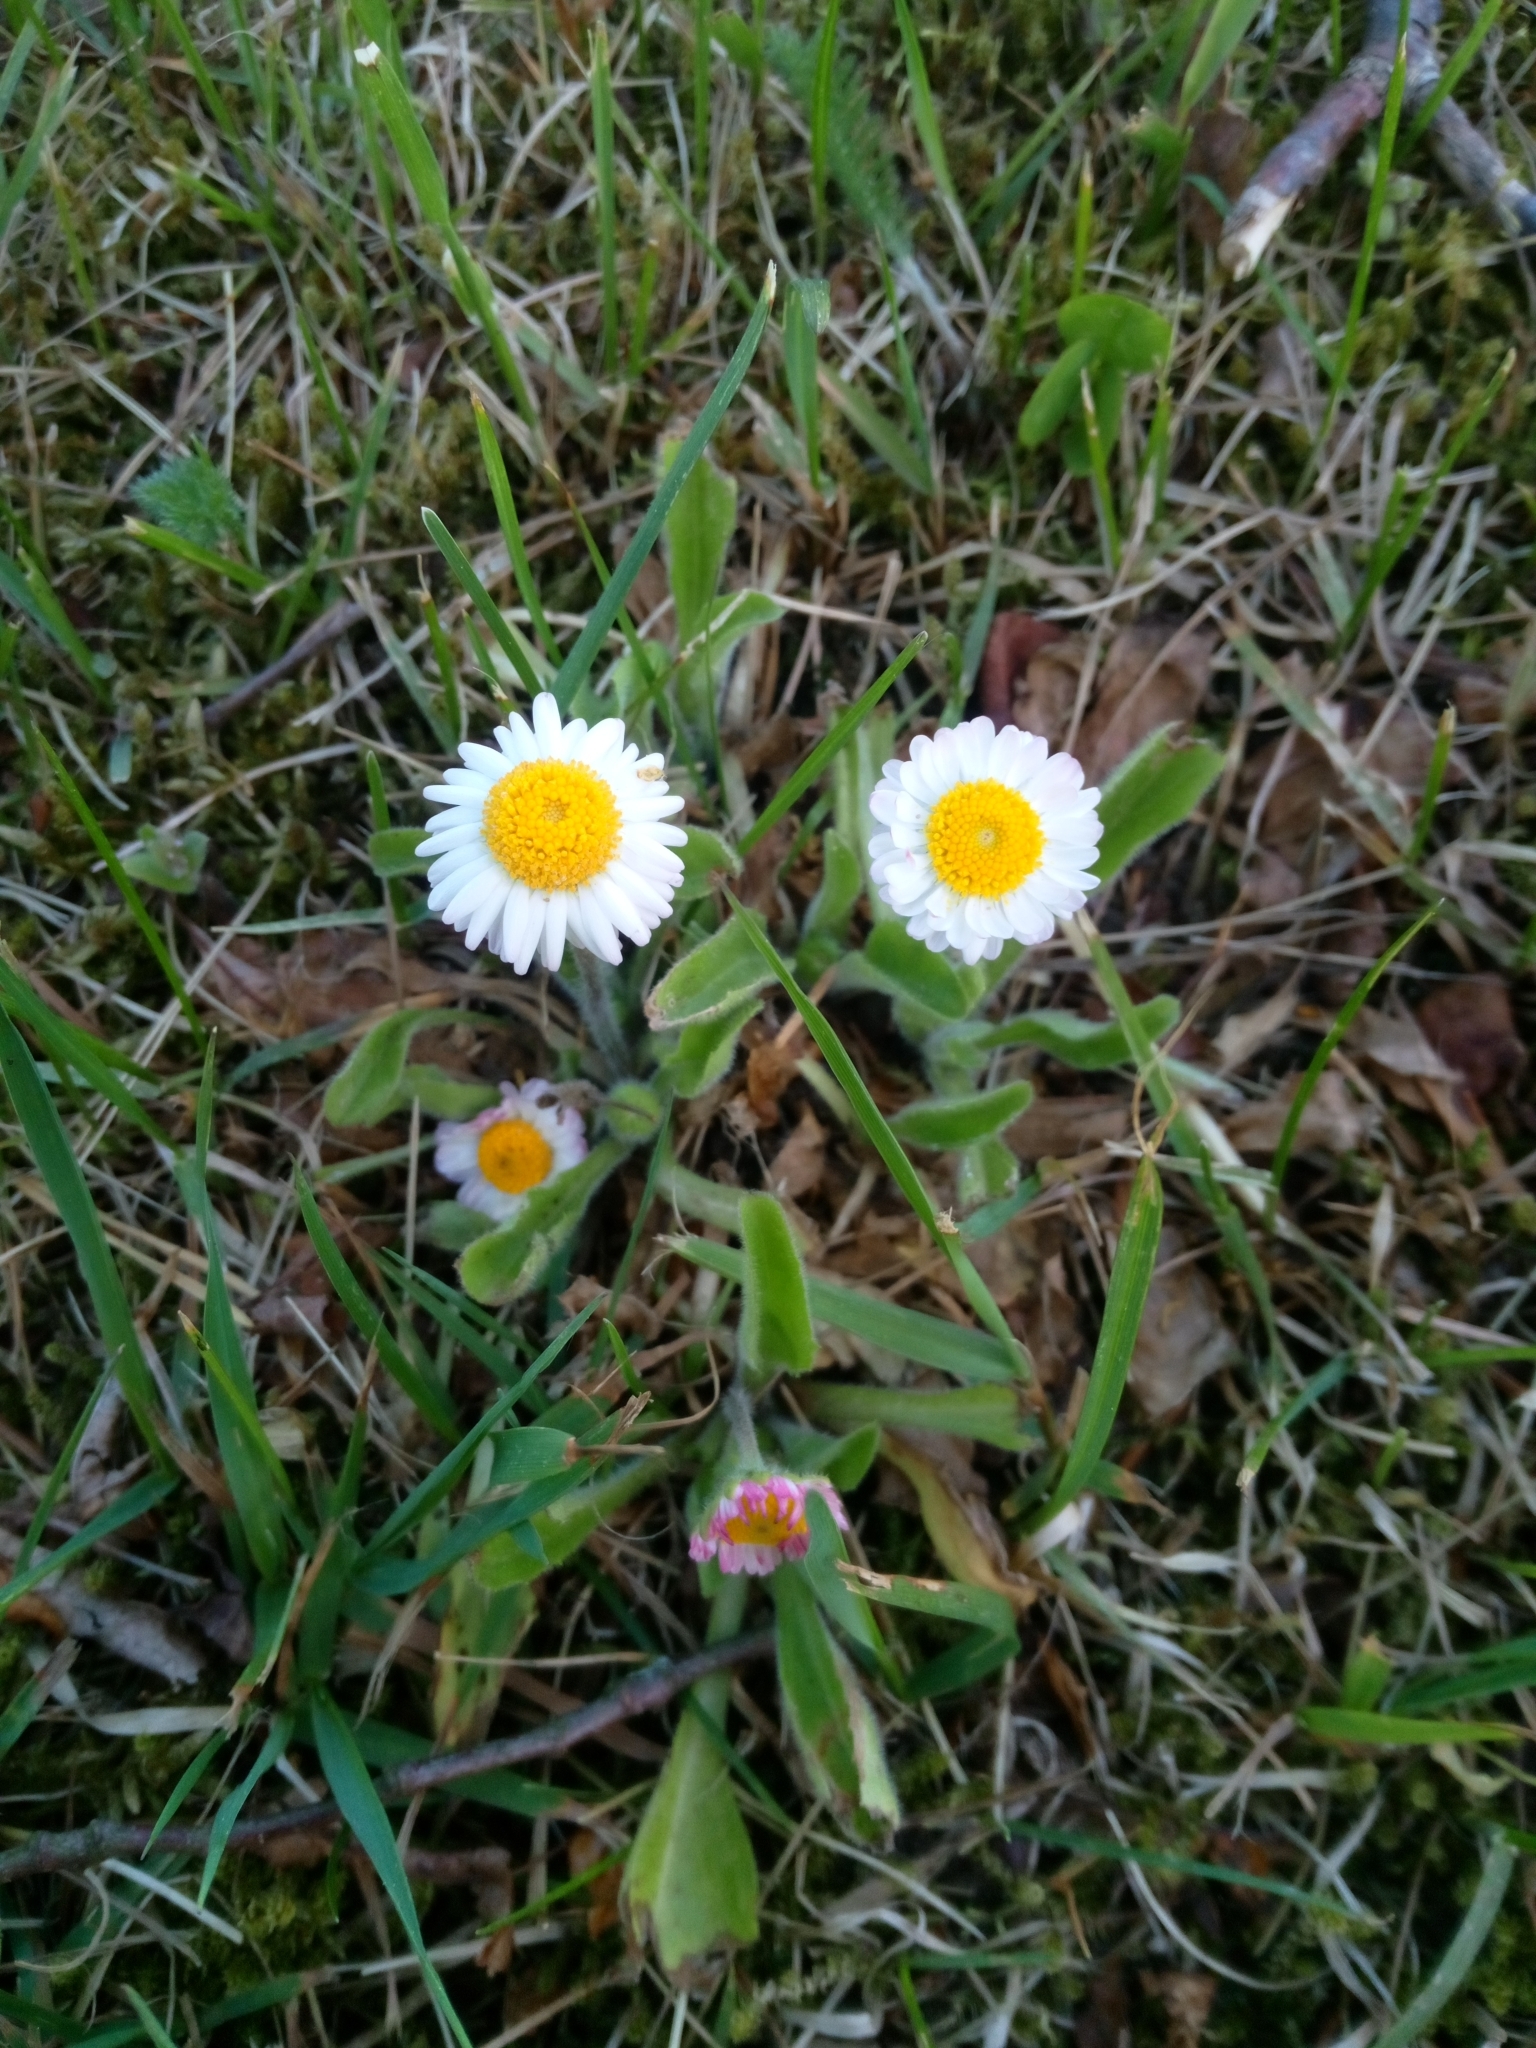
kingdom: Plantae
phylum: Tracheophyta
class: Magnoliopsida
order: Asterales
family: Asteraceae
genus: Bellis
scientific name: Bellis perennis
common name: Lawndaisy
